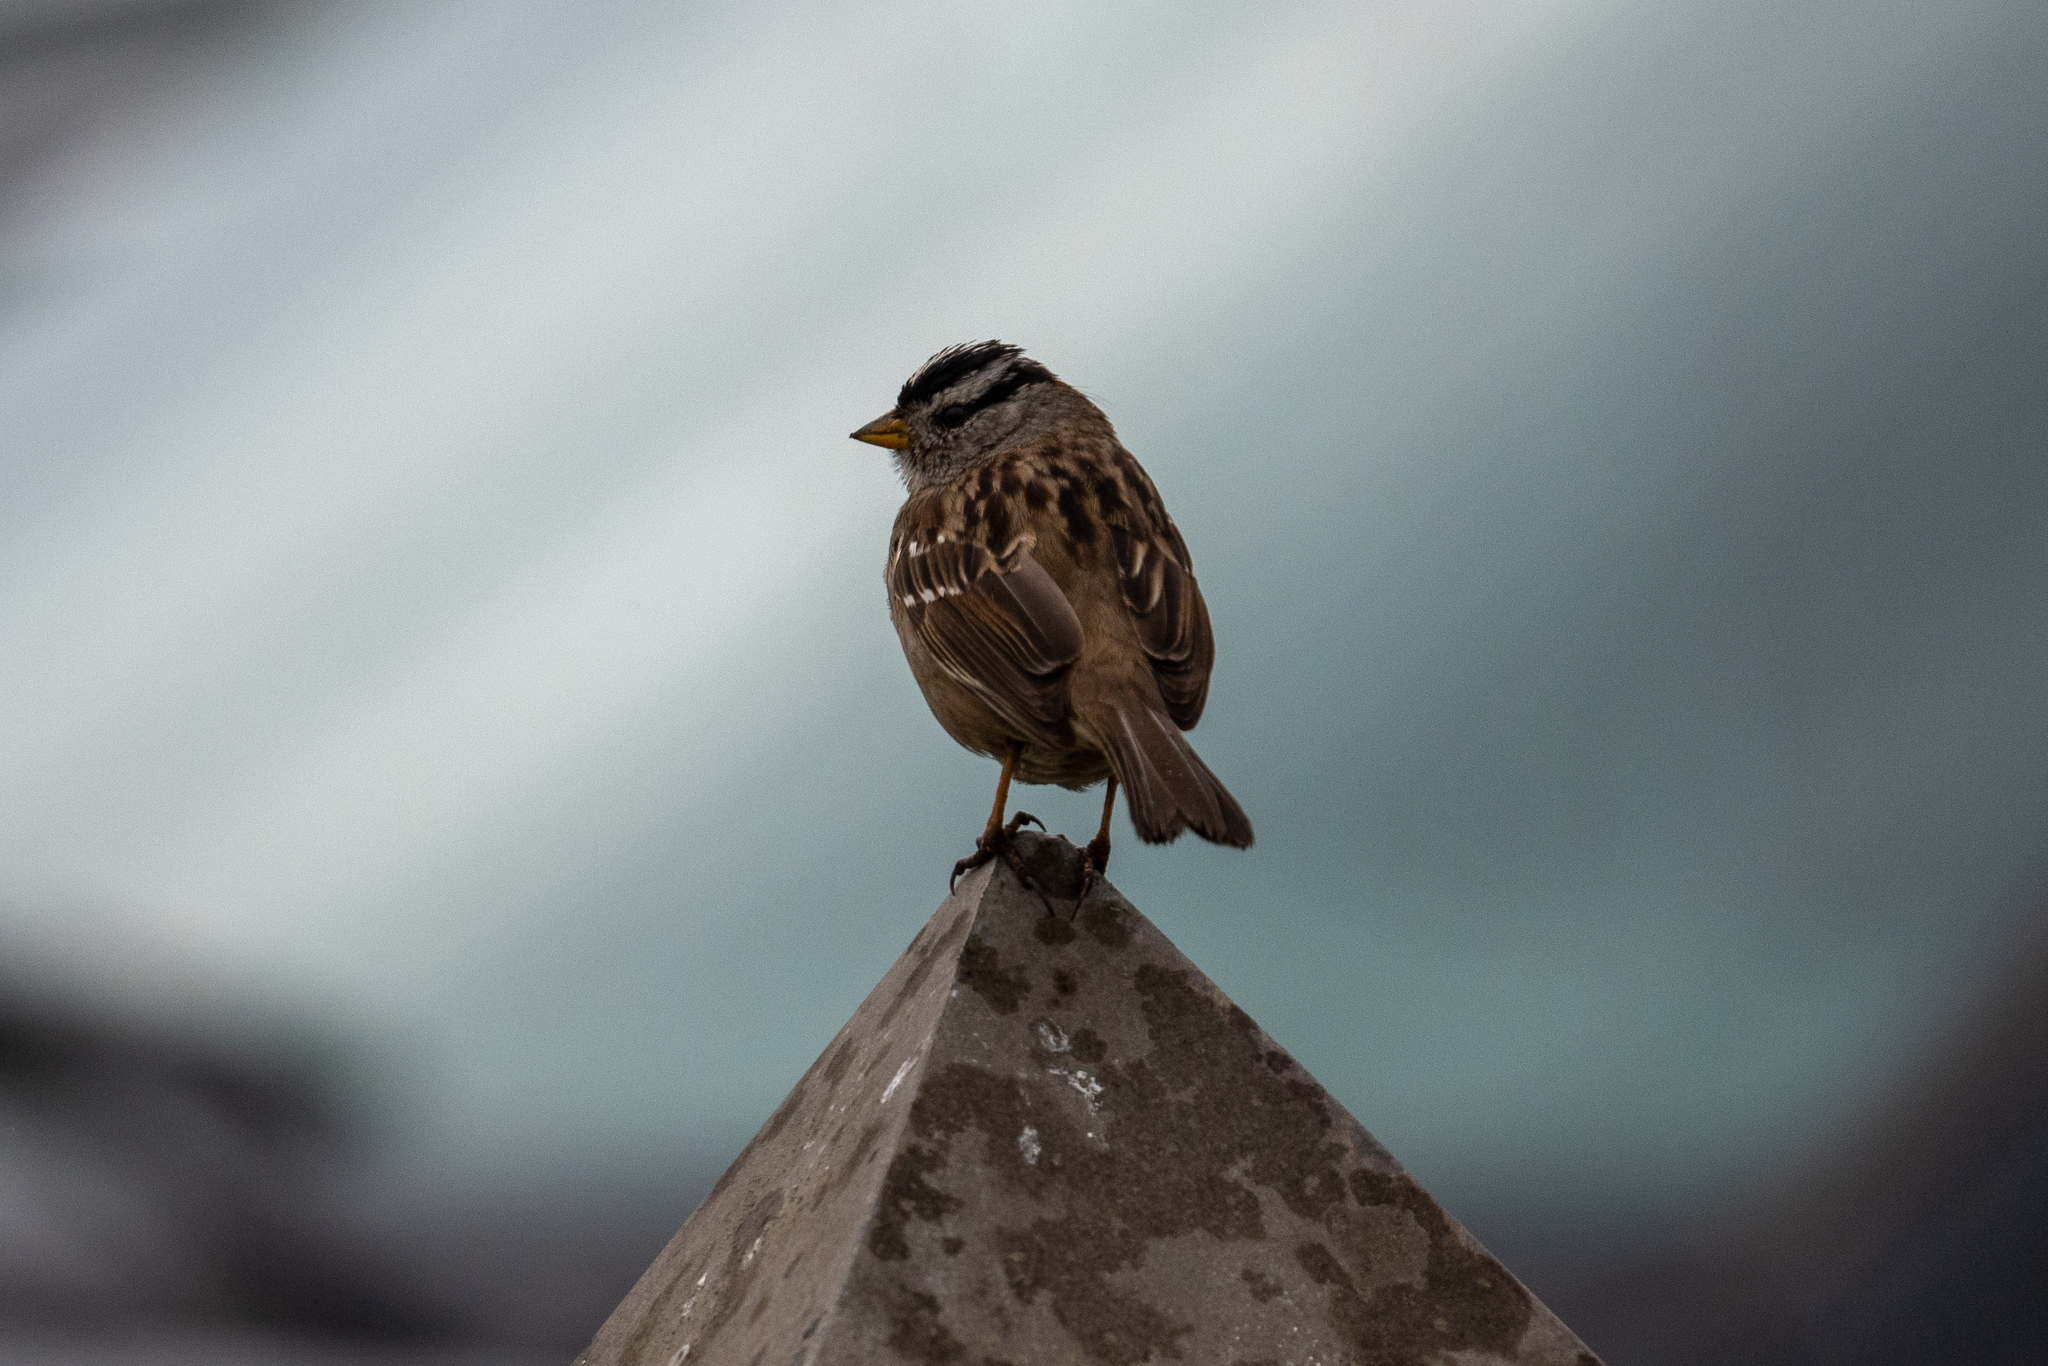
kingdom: Animalia
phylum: Chordata
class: Aves
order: Passeriformes
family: Passerellidae
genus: Zonotrichia
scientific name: Zonotrichia leucophrys
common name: White-crowned sparrow
